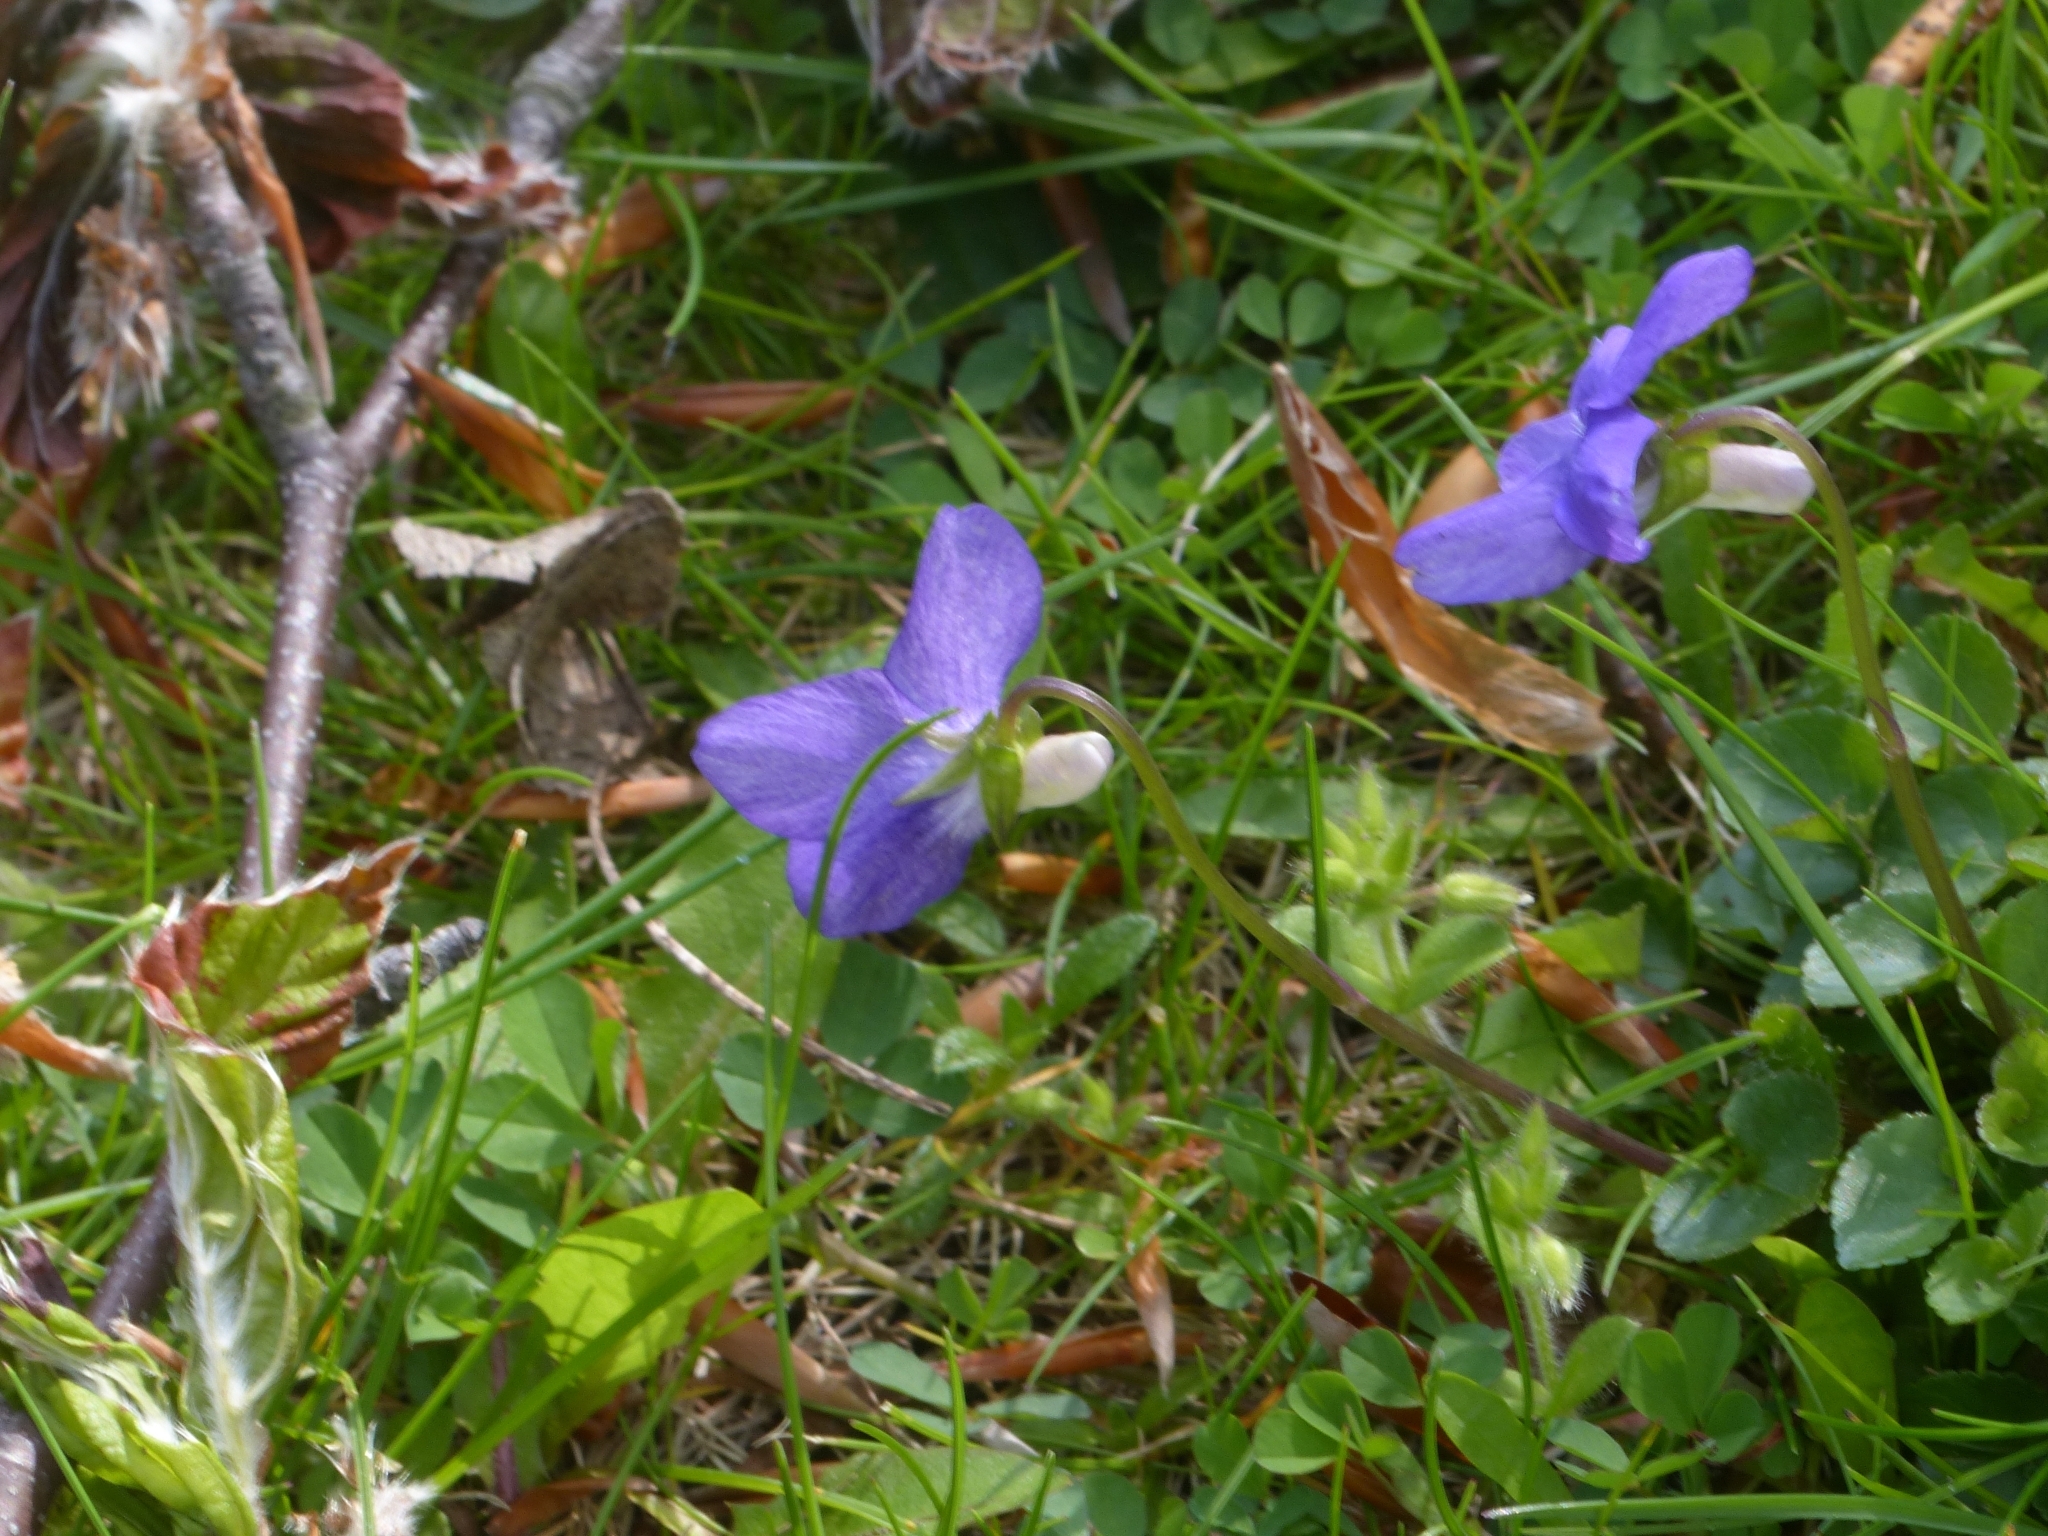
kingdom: Plantae
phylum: Tracheophyta
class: Magnoliopsida
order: Malpighiales
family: Violaceae
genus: Viola
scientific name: Viola riviniana
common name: Common dog-violet
